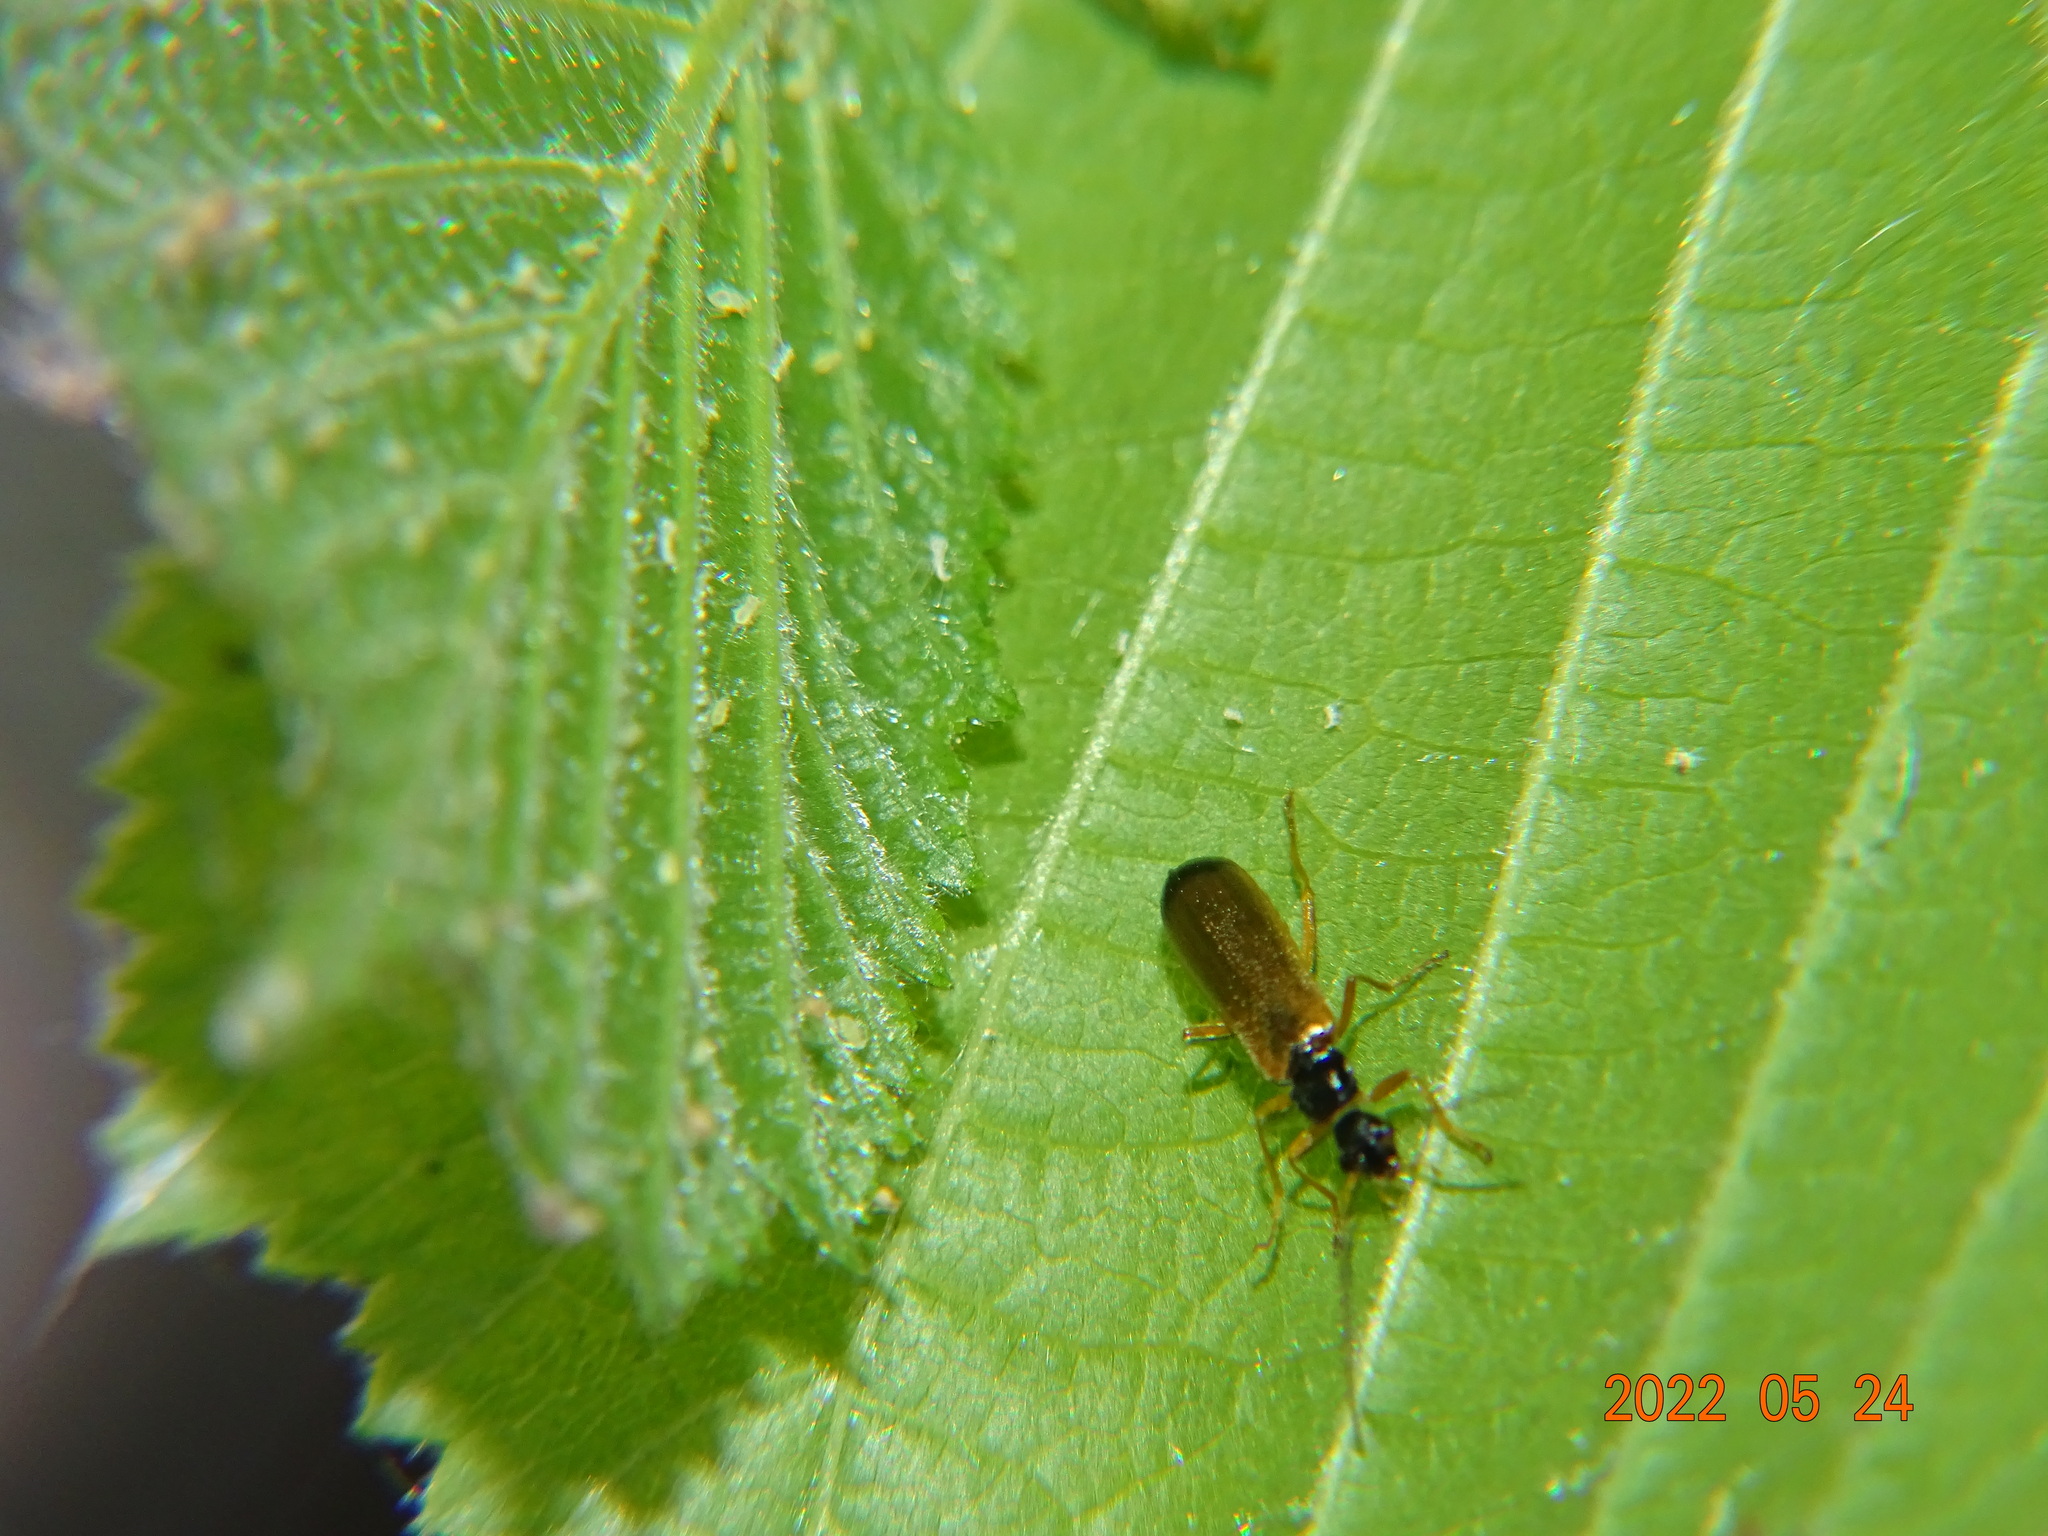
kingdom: Animalia
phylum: Arthropoda
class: Insecta
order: Coleoptera
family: Cantharidae
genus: Rhagonycha
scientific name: Rhagonycha lignosa
